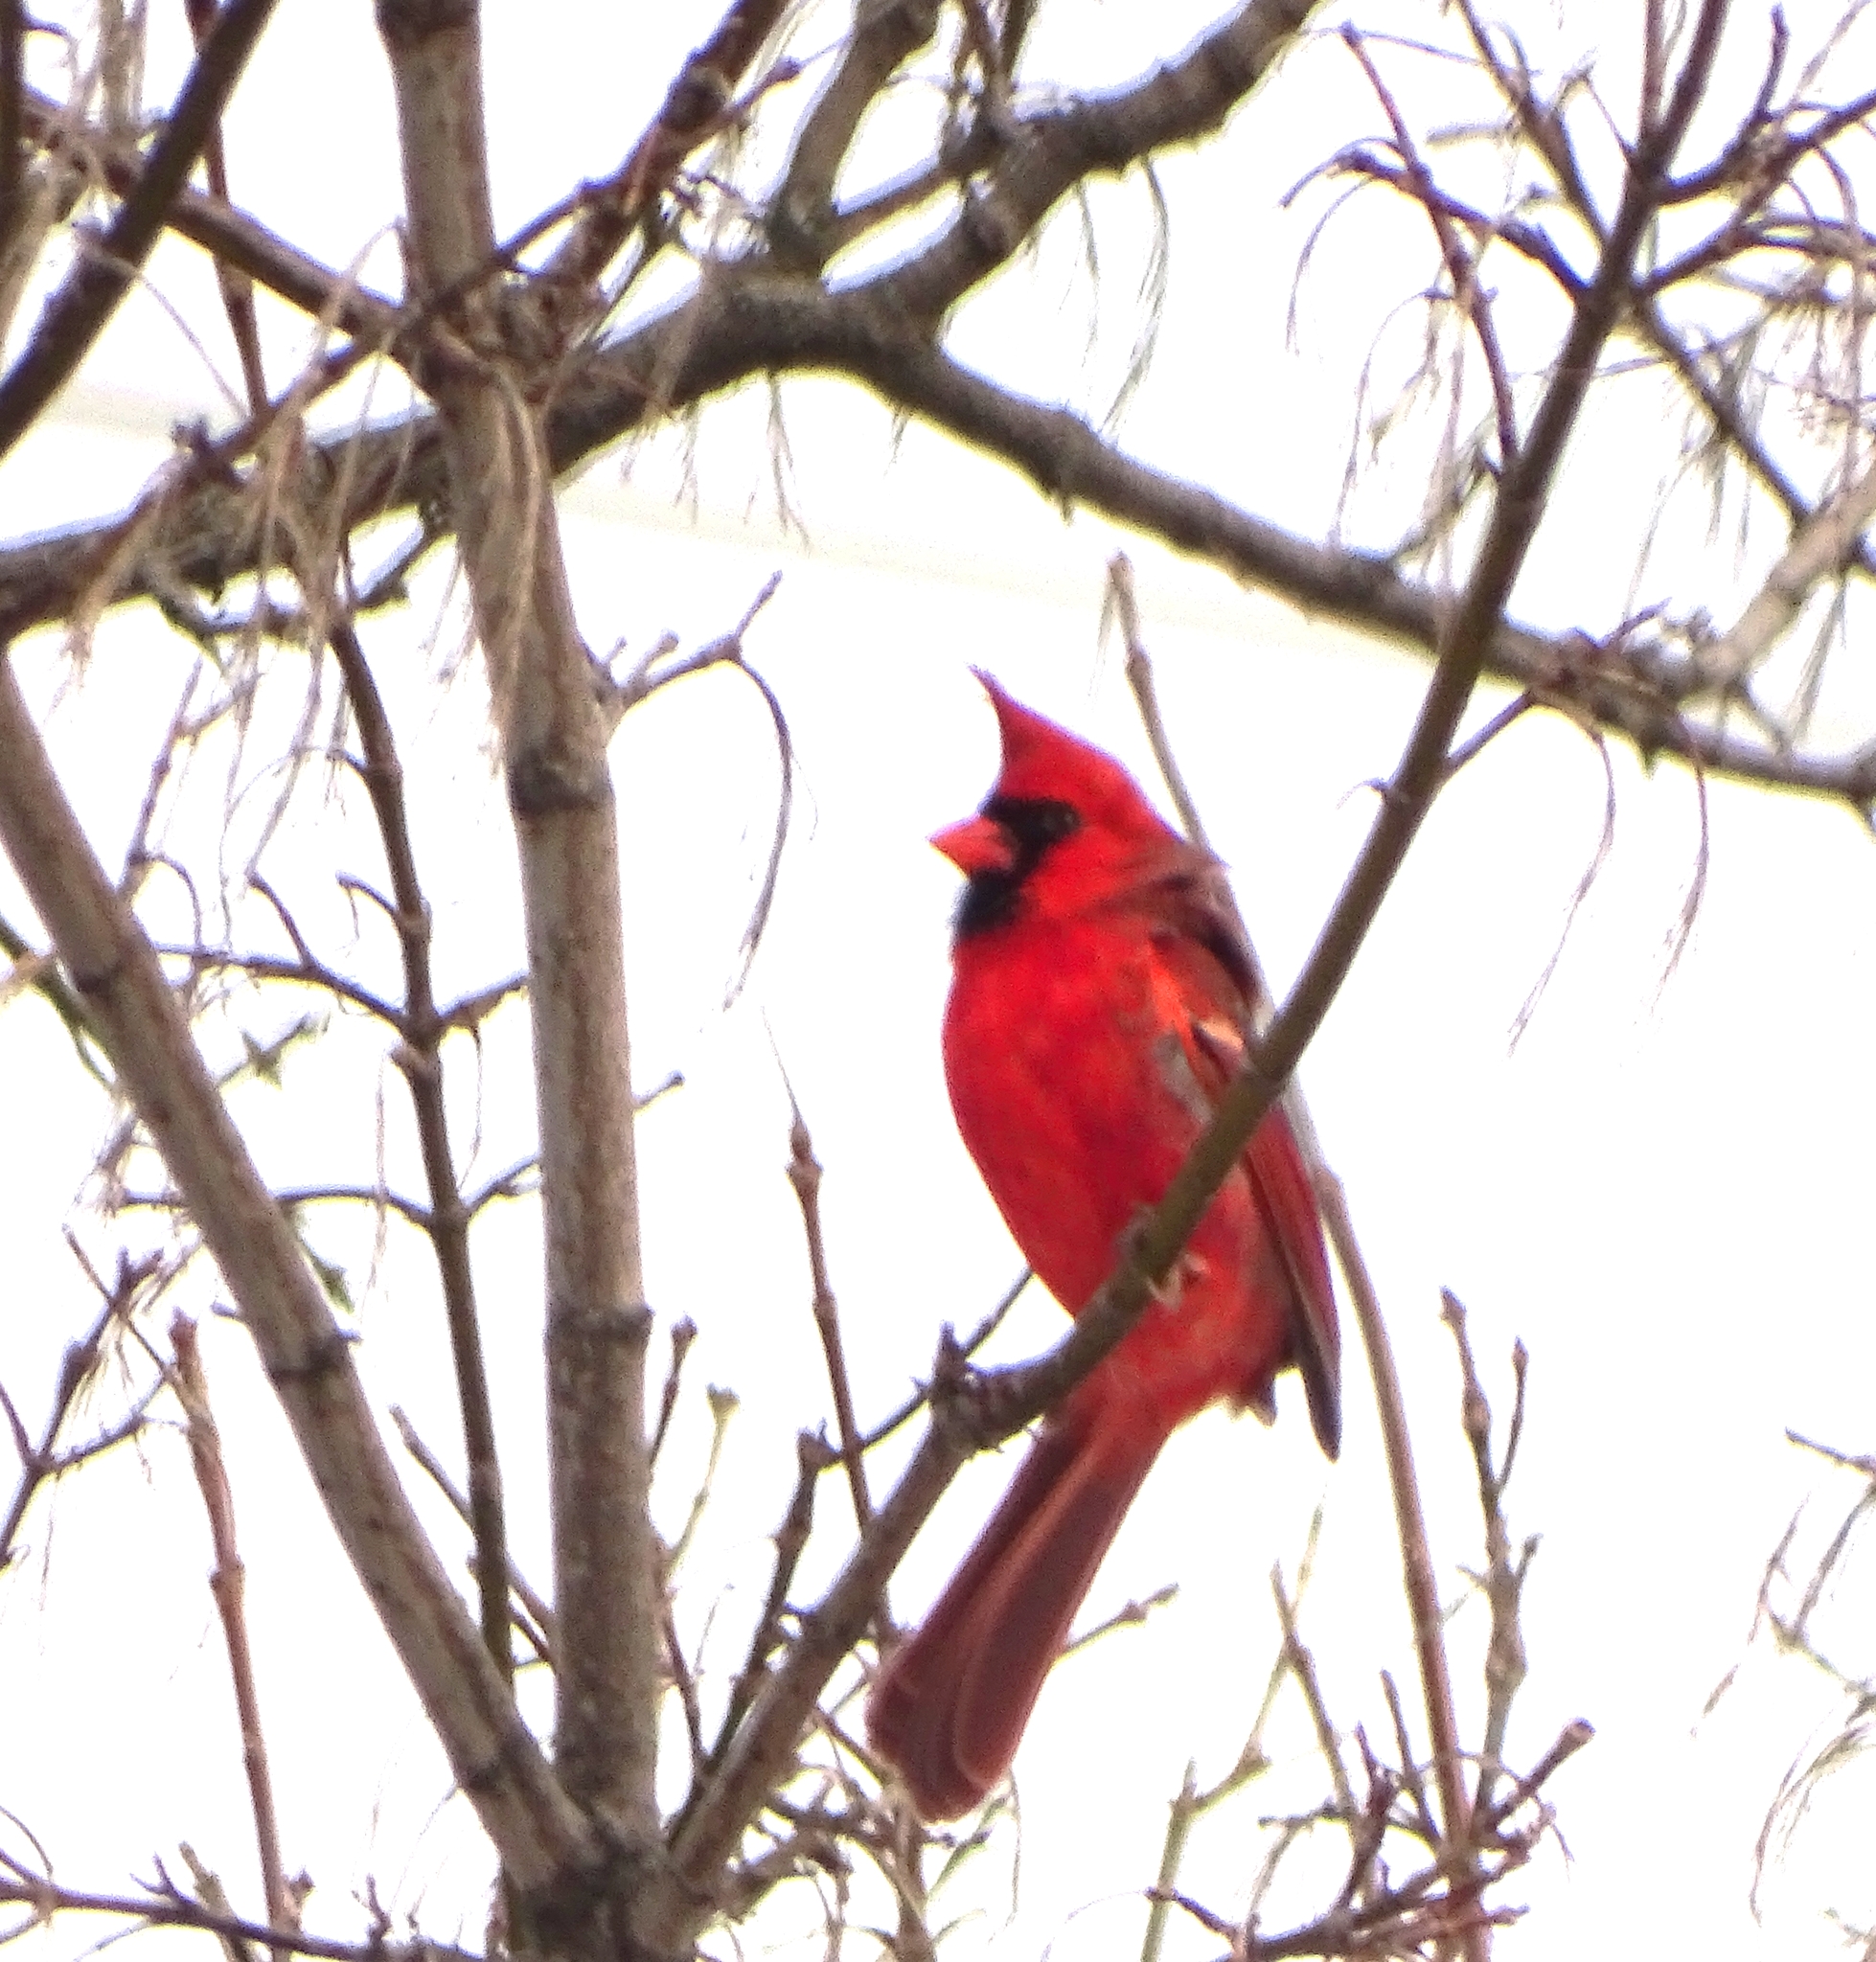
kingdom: Animalia
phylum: Chordata
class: Aves
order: Passeriformes
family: Cardinalidae
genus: Cardinalis
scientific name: Cardinalis cardinalis
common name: Northern cardinal
